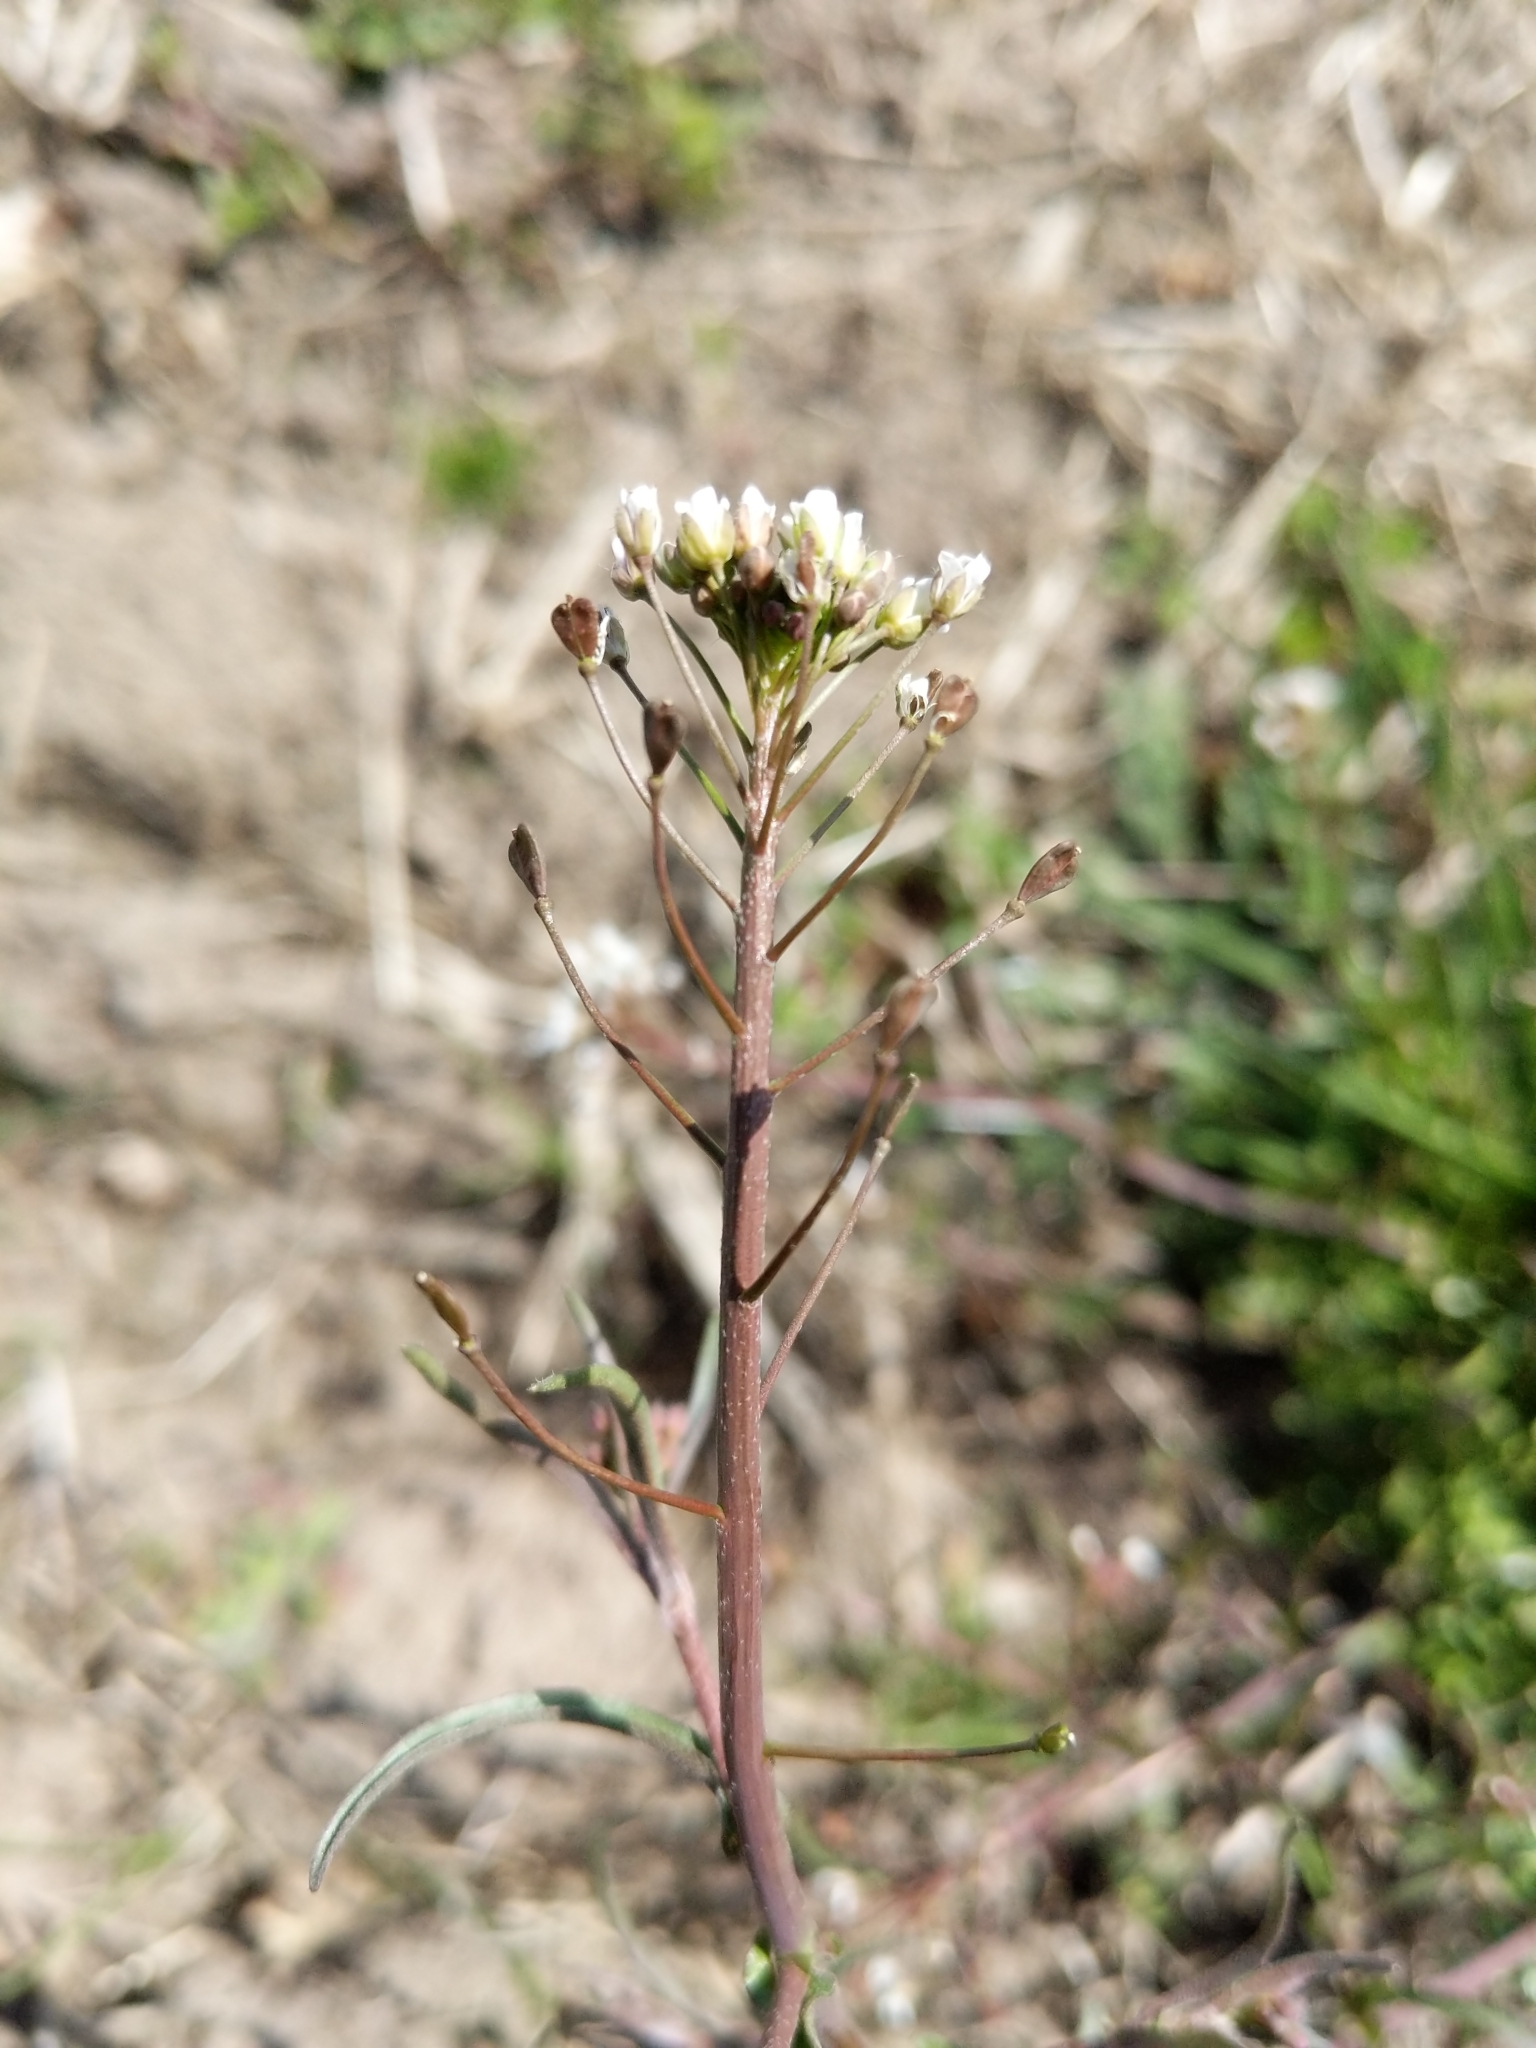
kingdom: Plantae
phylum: Tracheophyta
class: Magnoliopsida
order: Brassicales
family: Brassicaceae
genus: Capsella
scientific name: Capsella bursa-pastoris
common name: Shepherd's purse
